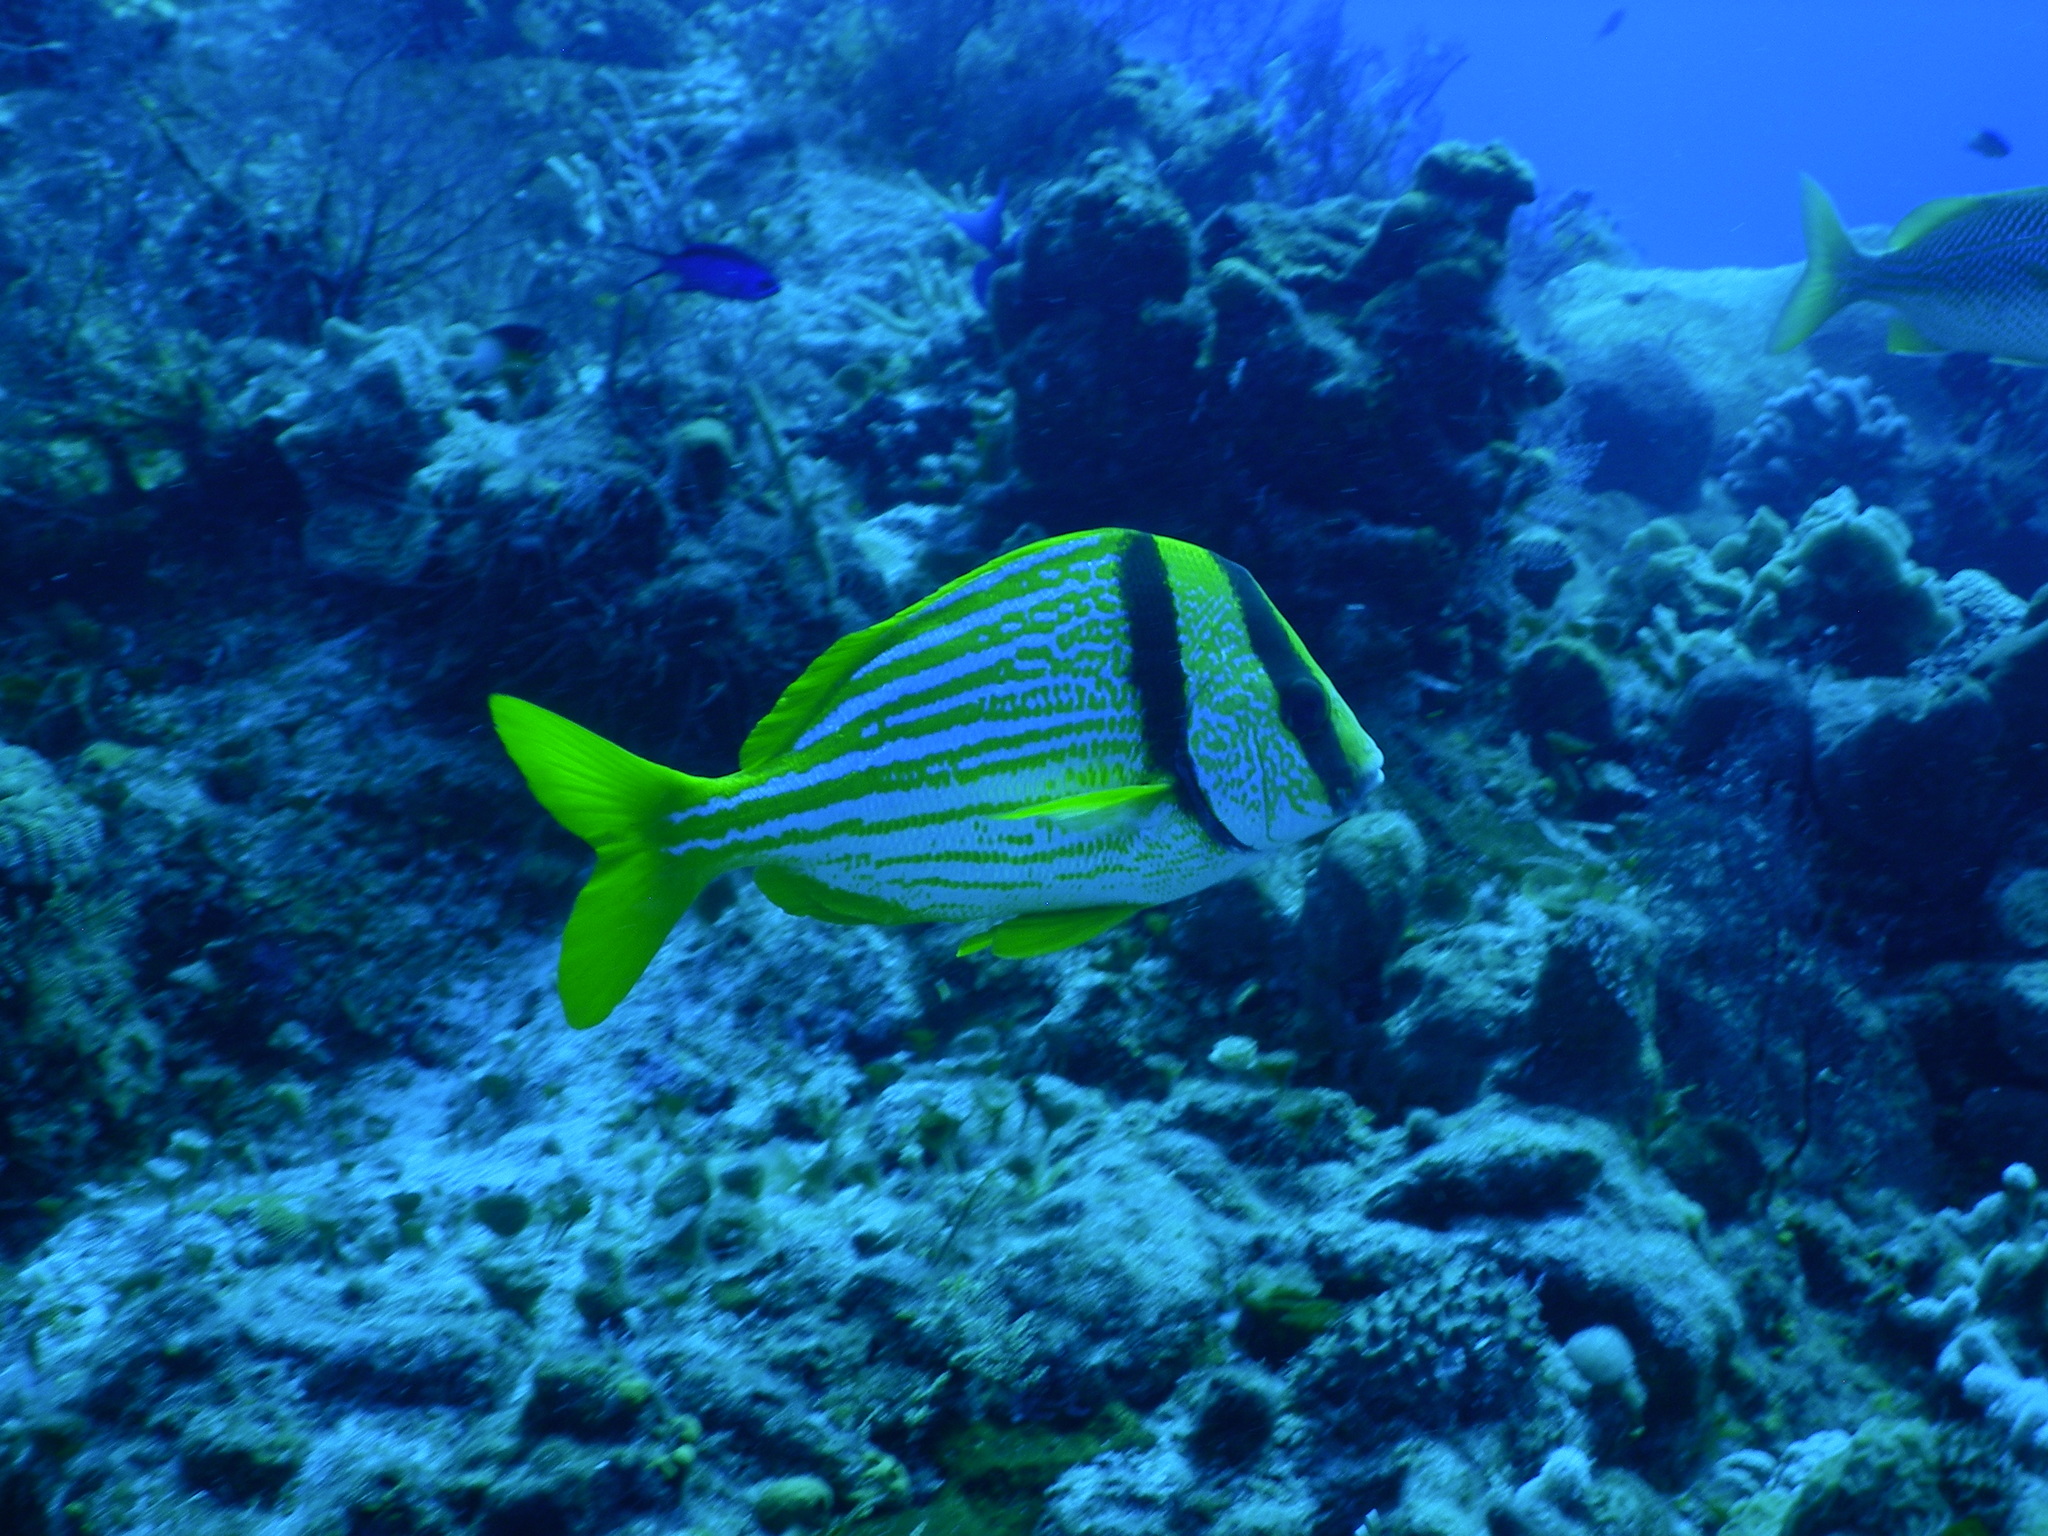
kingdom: Animalia
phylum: Chordata
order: Perciformes
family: Haemulidae
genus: Anisotremus
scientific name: Anisotremus virginicus
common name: Porkfish
